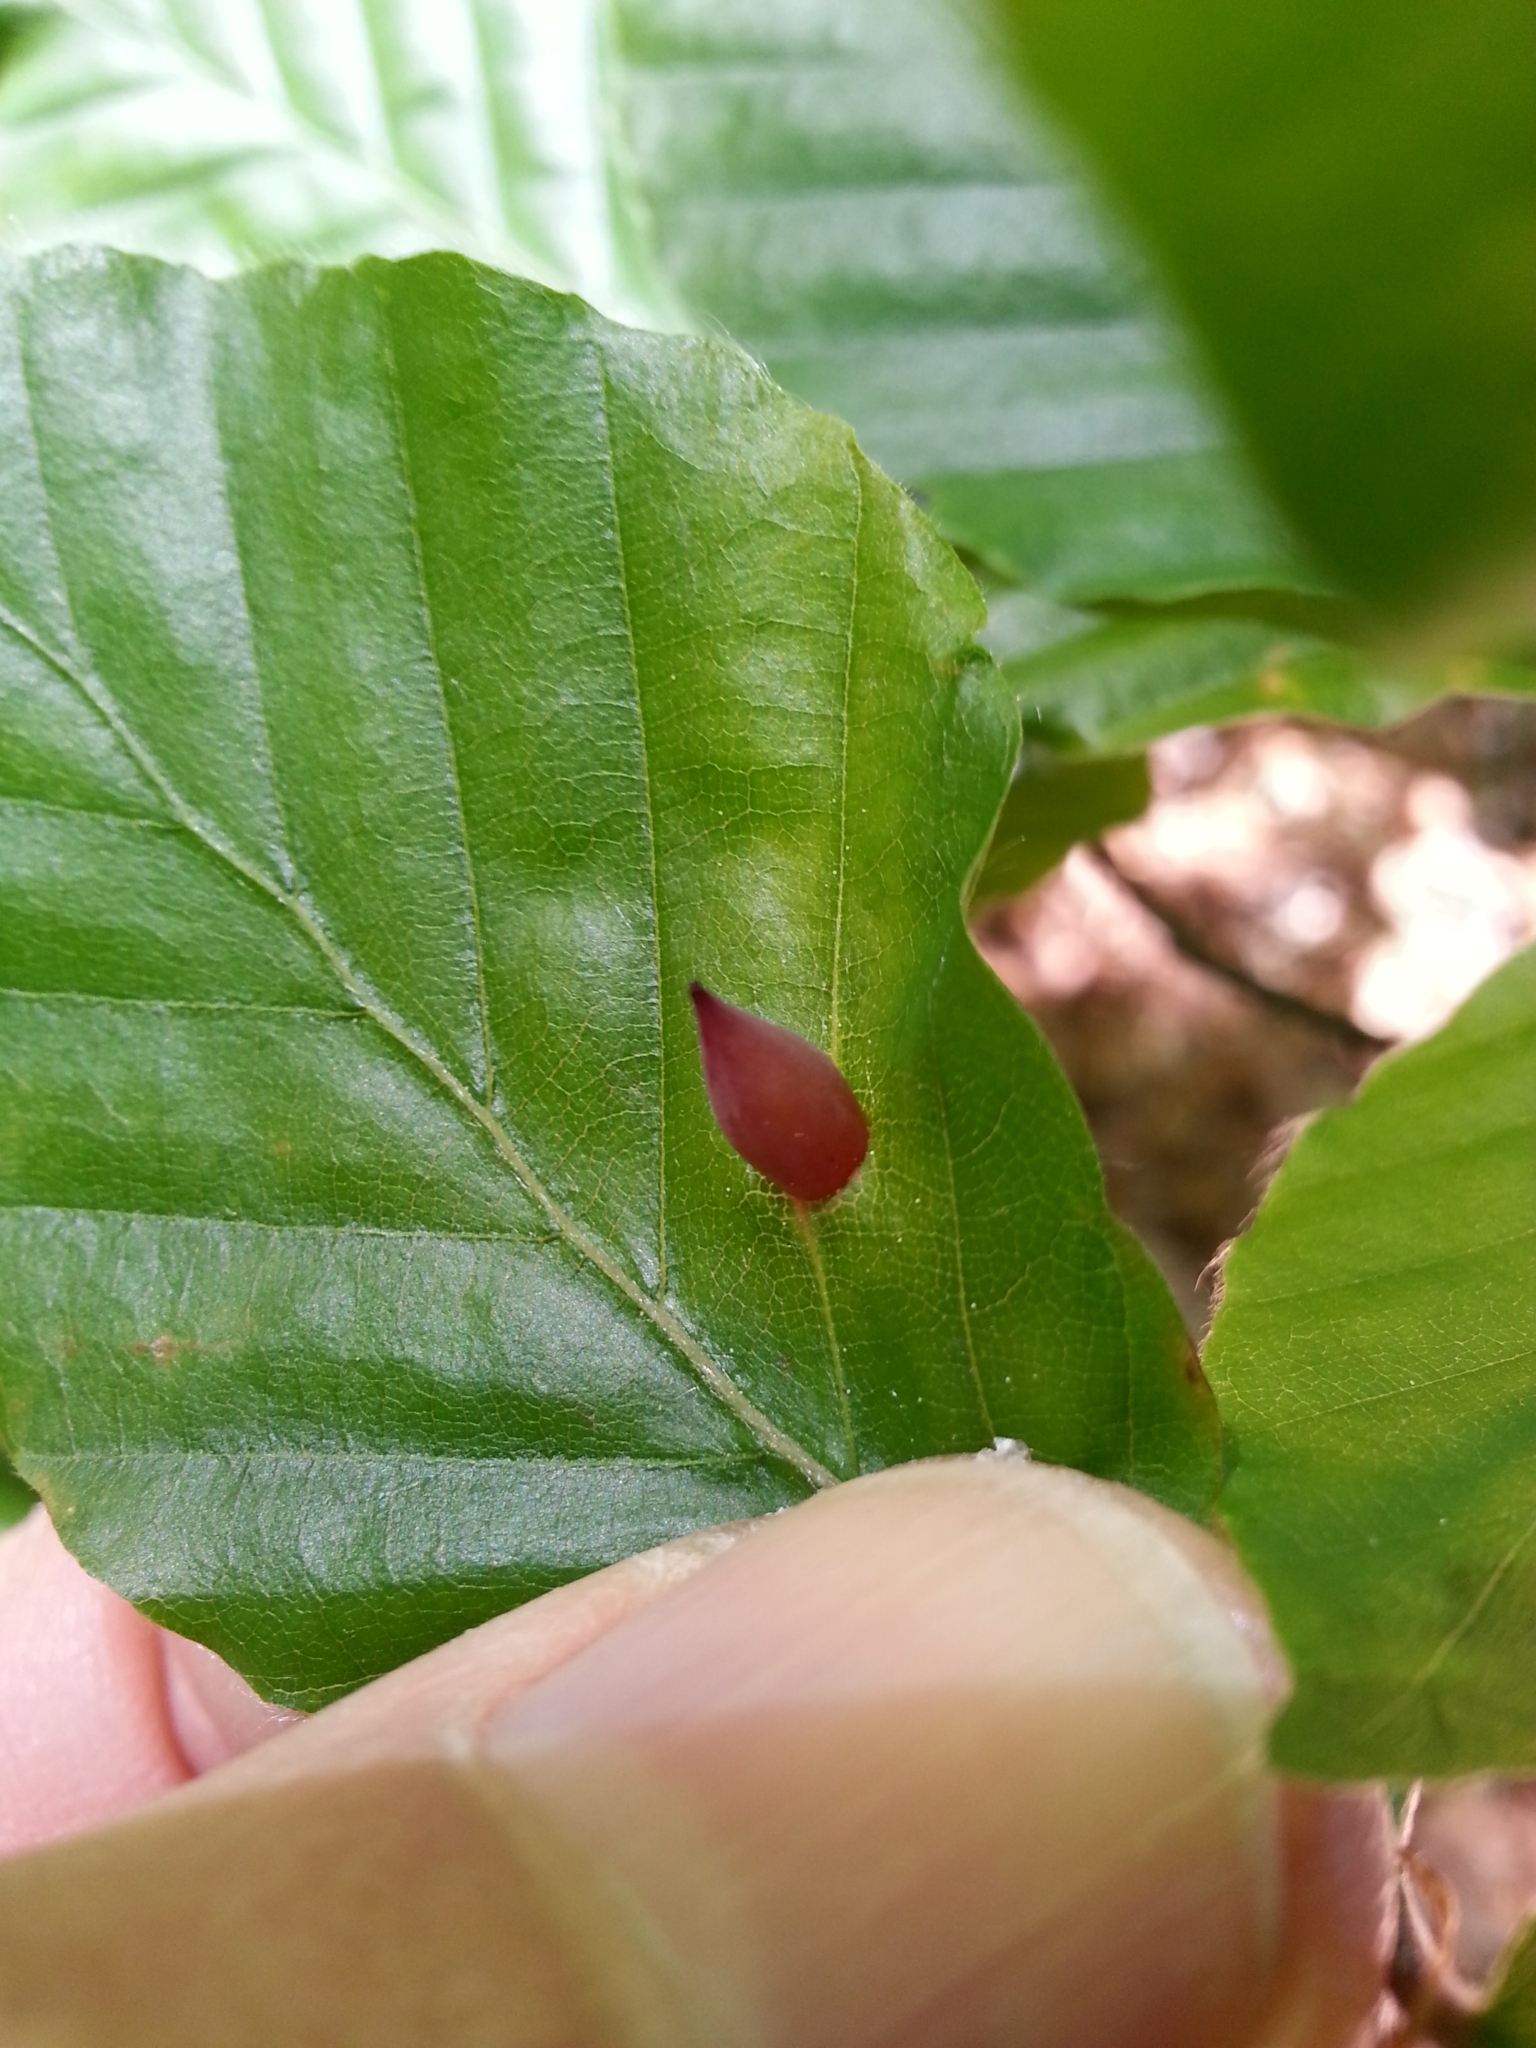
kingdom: Animalia
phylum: Arthropoda
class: Insecta
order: Diptera
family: Cecidomyiidae
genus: Mikiola
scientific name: Mikiola fagi
